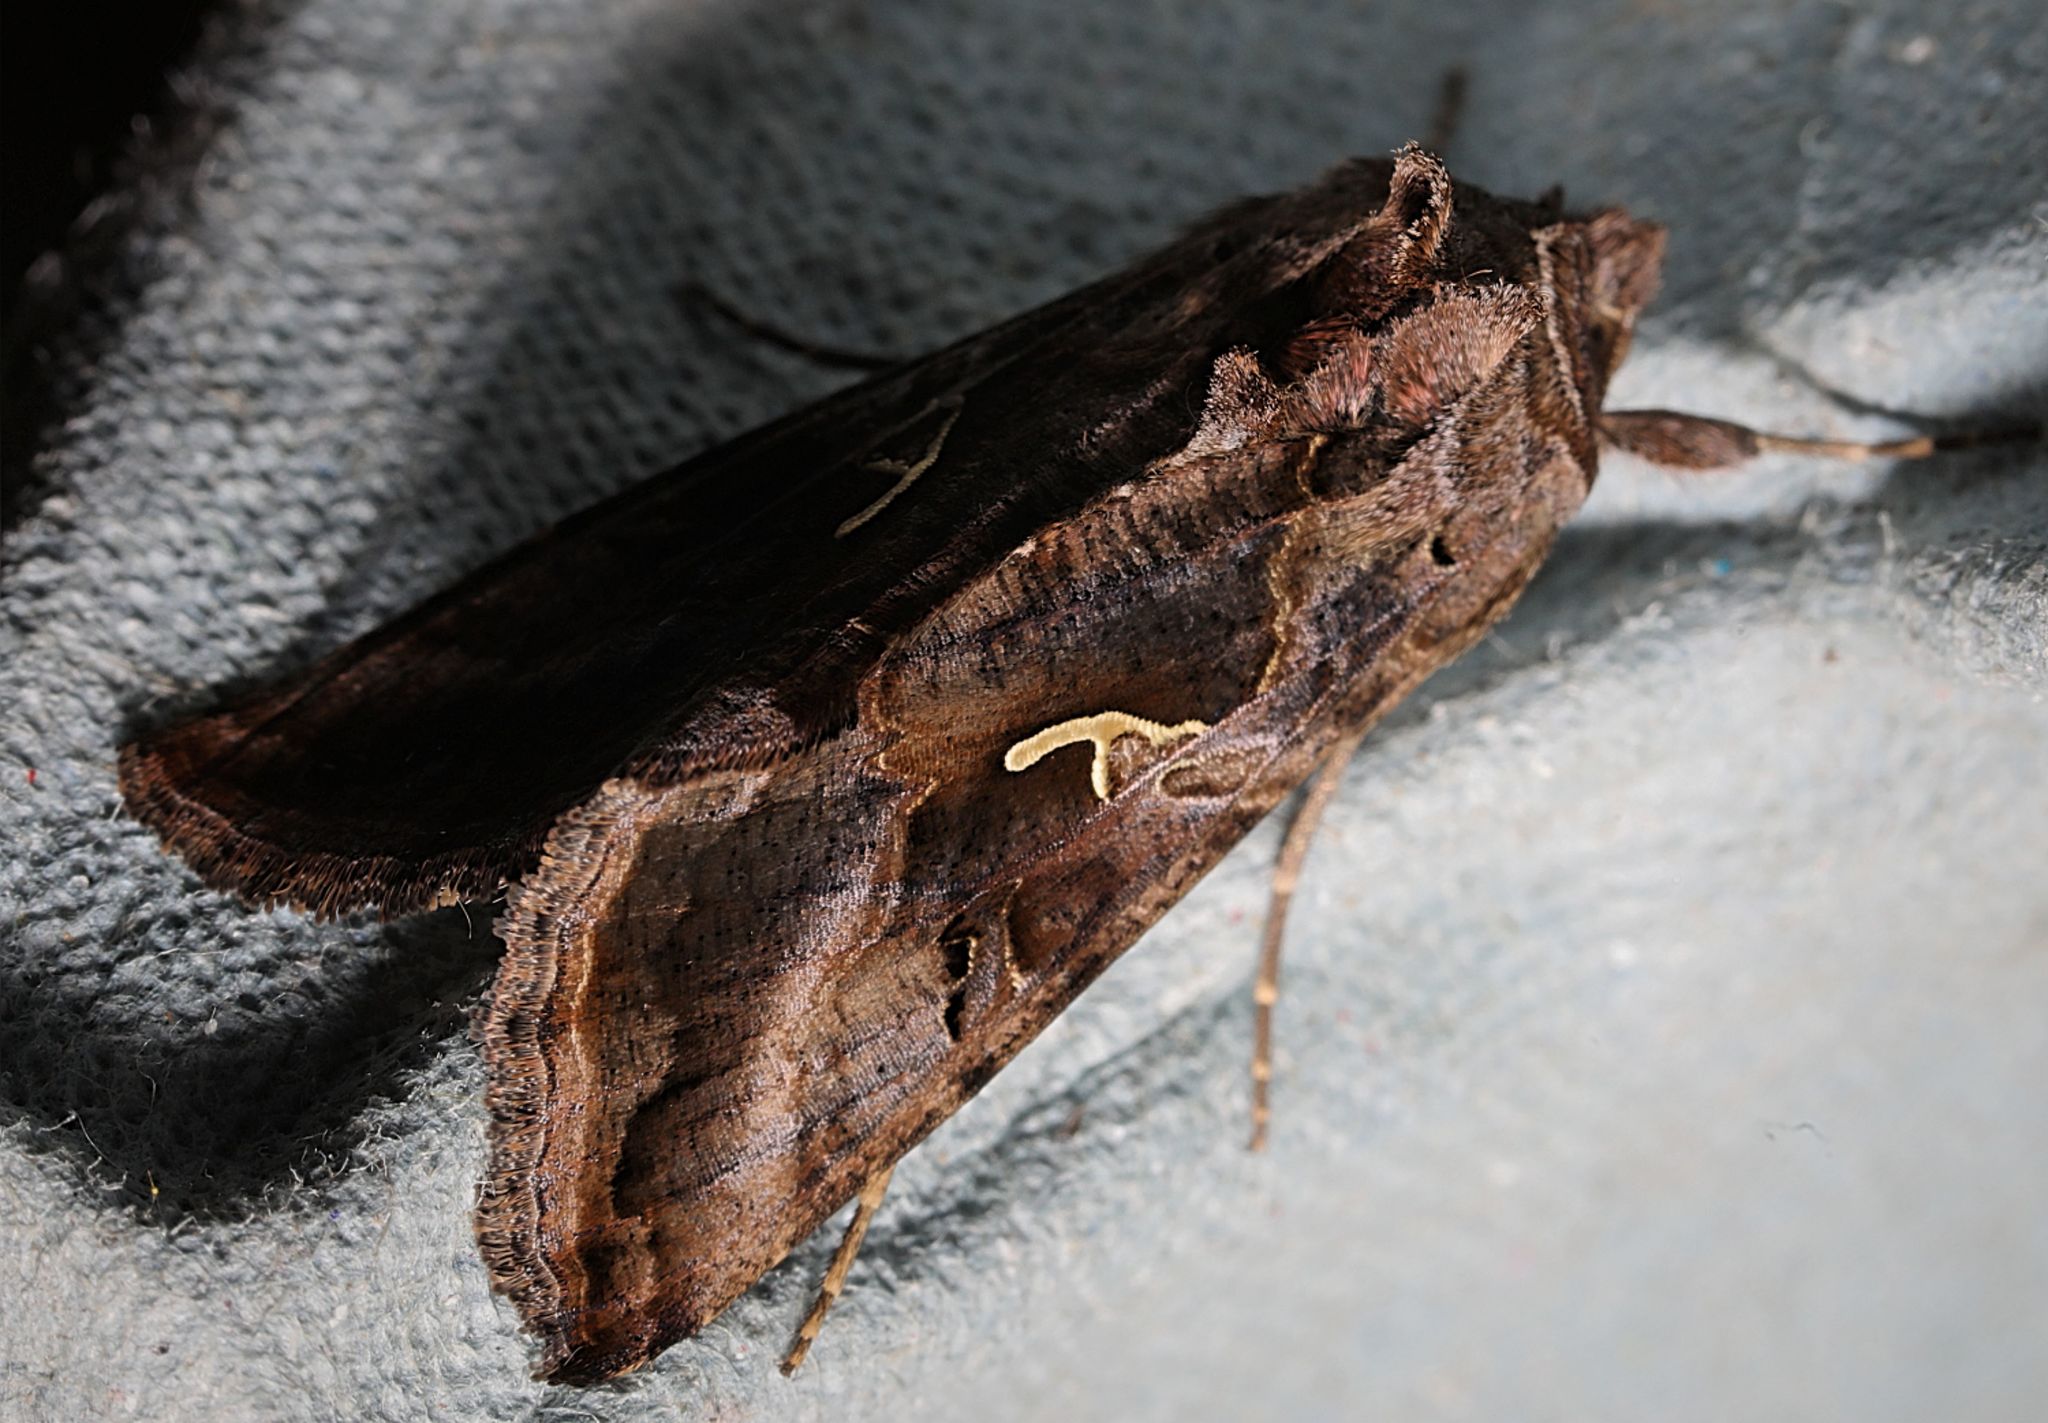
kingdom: Animalia
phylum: Arthropoda
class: Insecta
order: Lepidoptera
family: Noctuidae
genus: Autographa
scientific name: Autographa gamma
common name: Silver y
